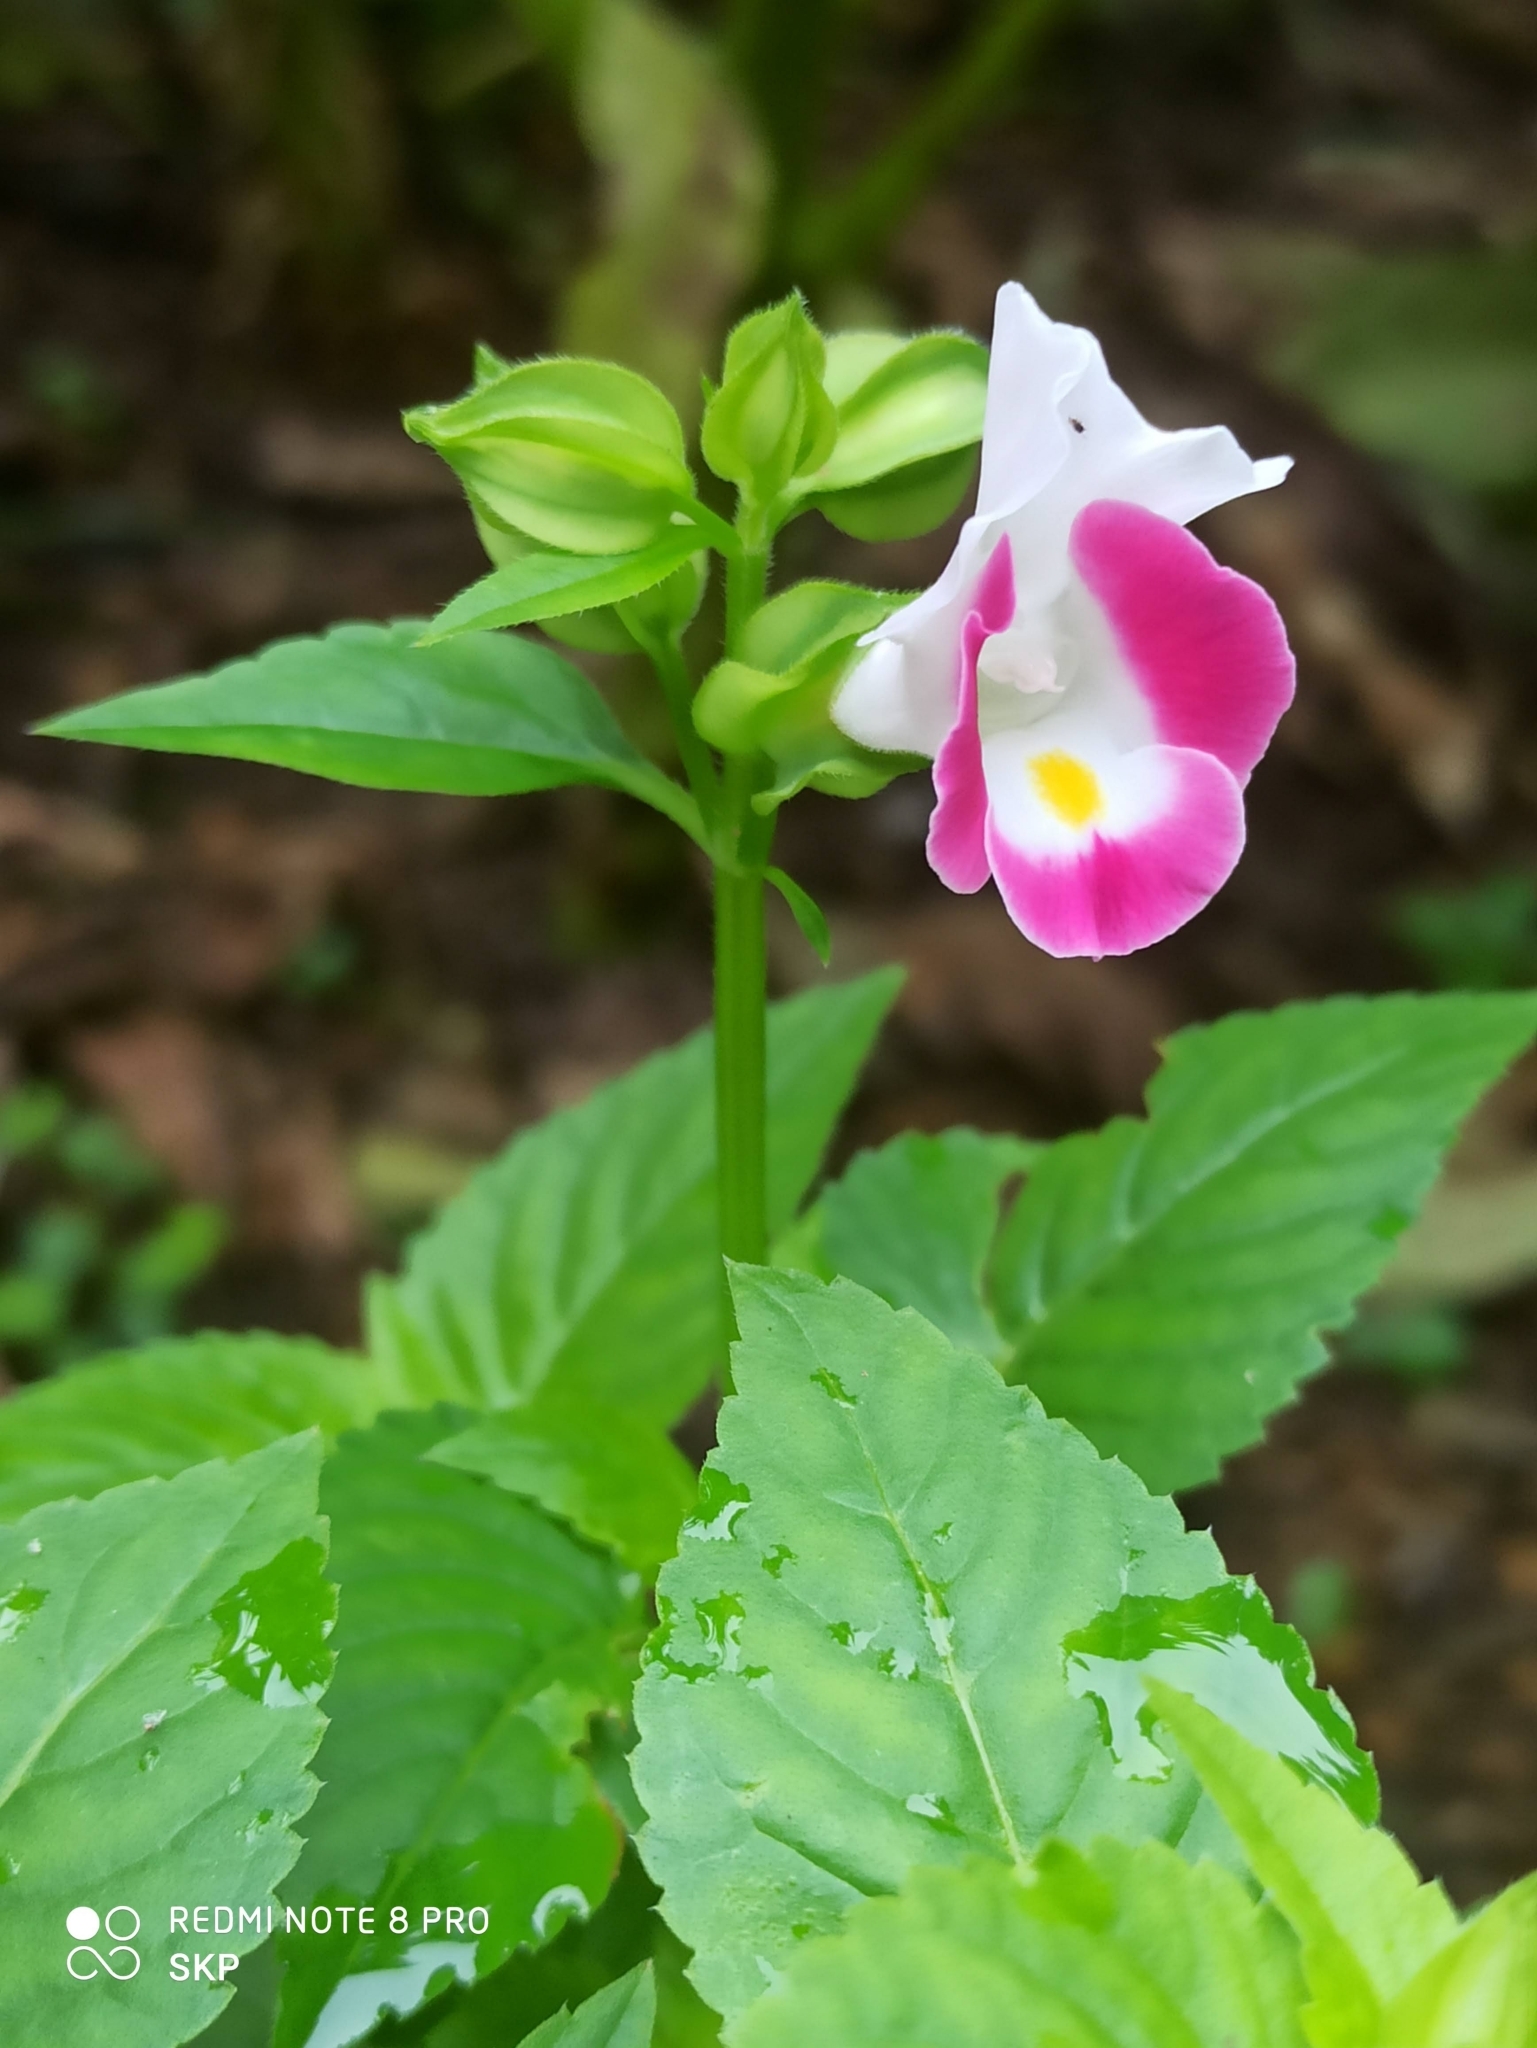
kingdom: Plantae
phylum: Tracheophyta
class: Magnoliopsida
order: Lamiales
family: Linderniaceae
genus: Torenia
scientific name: Torenia fournieri
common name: Bluewings
